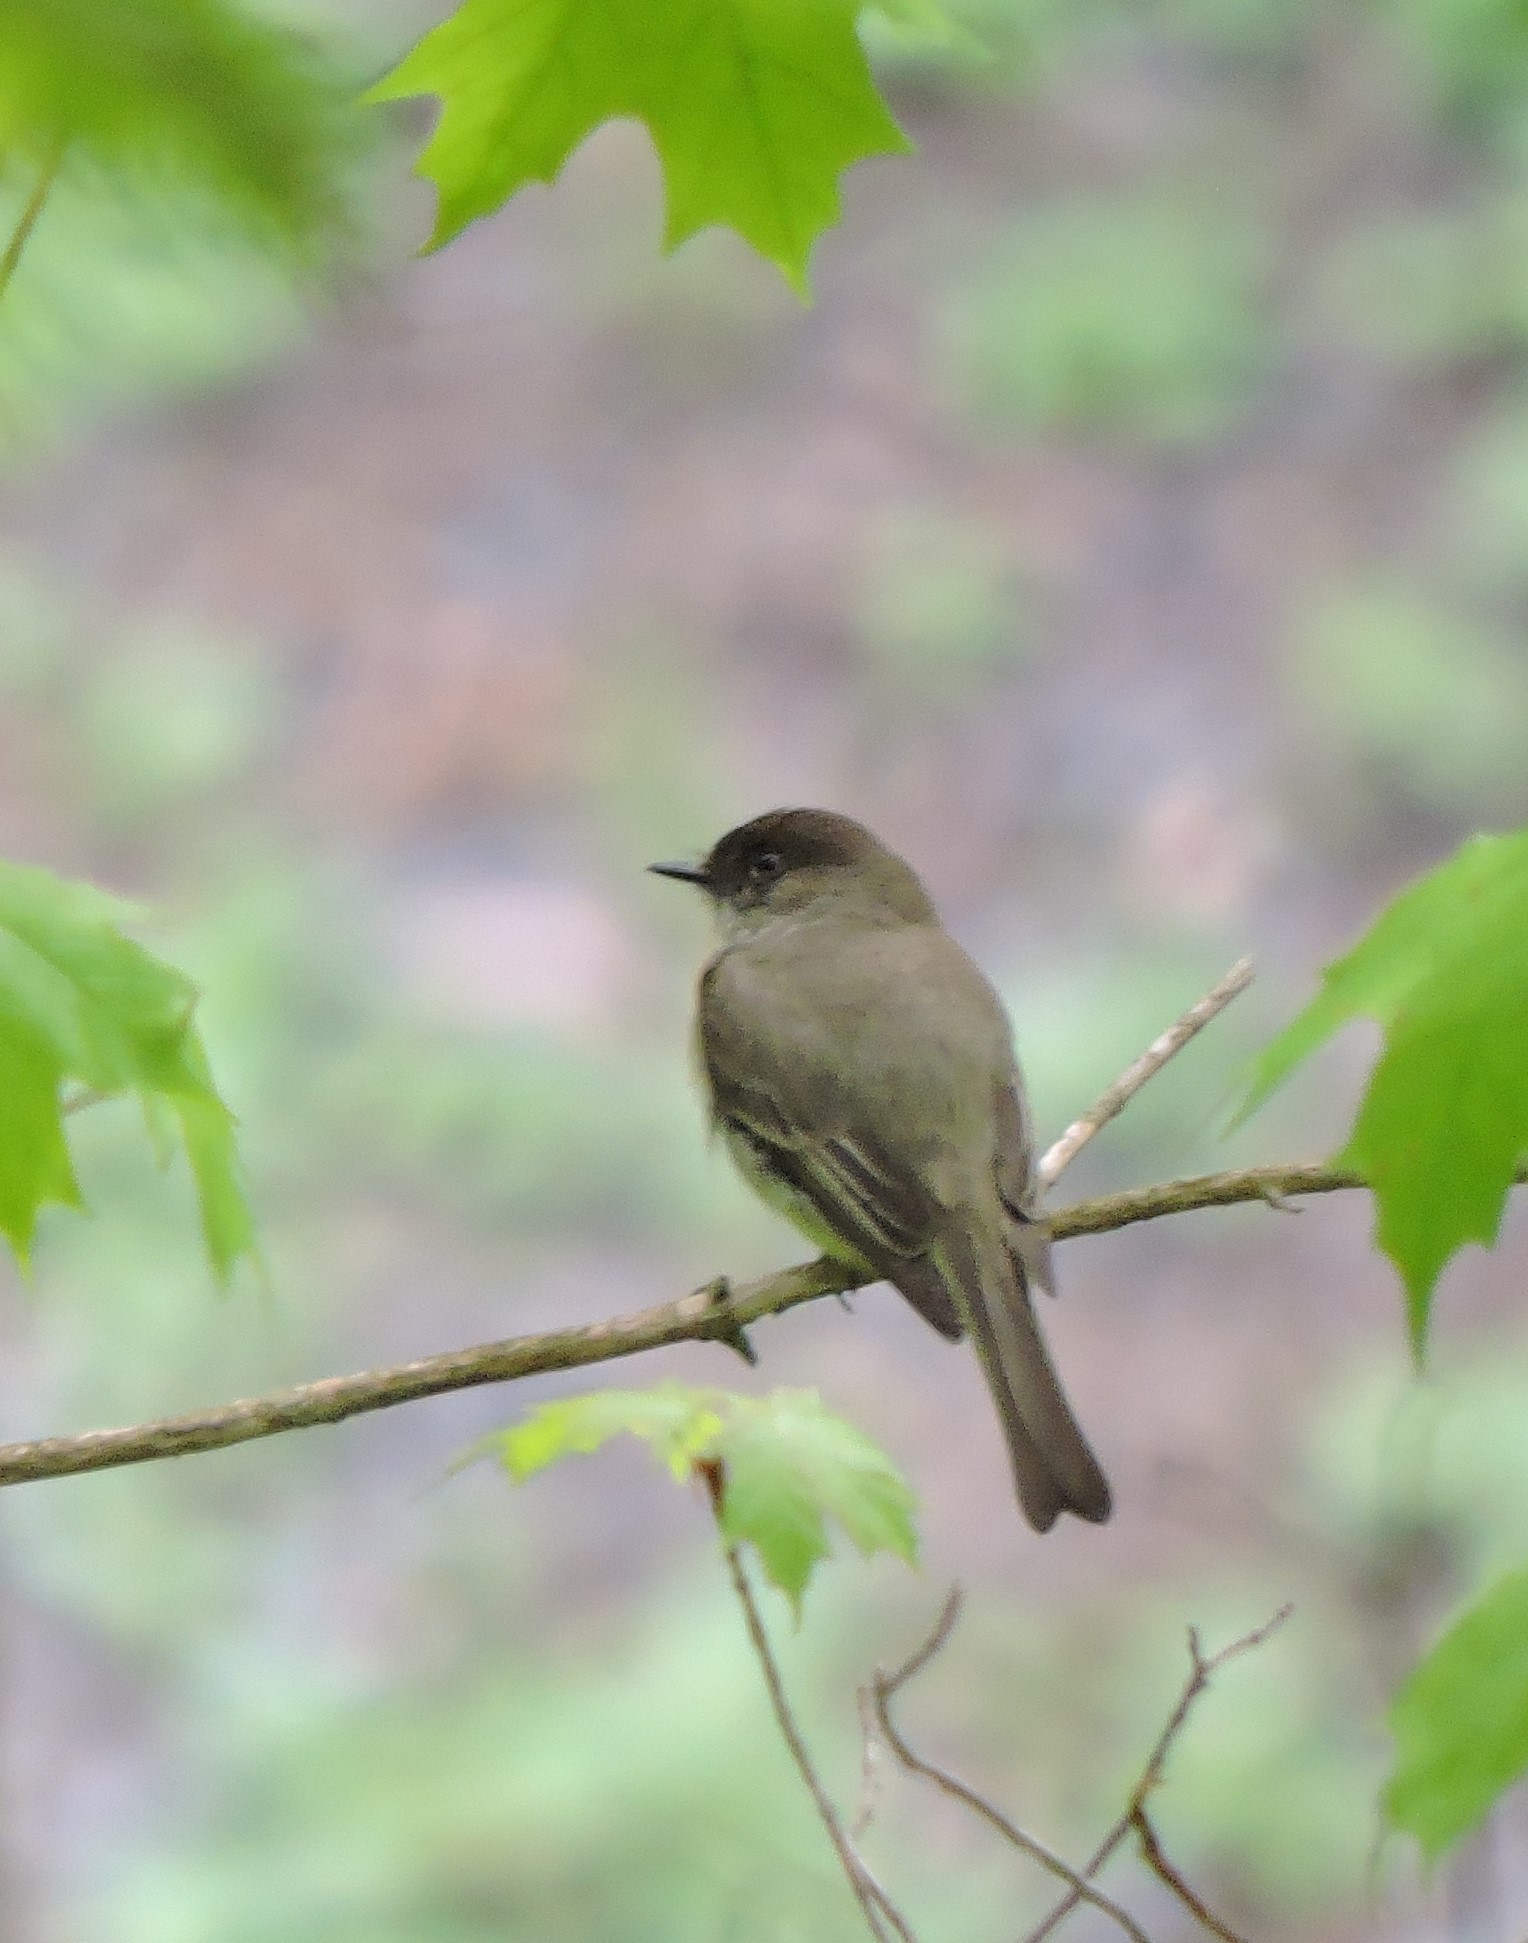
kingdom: Animalia
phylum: Chordata
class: Aves
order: Passeriformes
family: Tyrannidae
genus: Sayornis
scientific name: Sayornis phoebe
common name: Eastern phoebe
